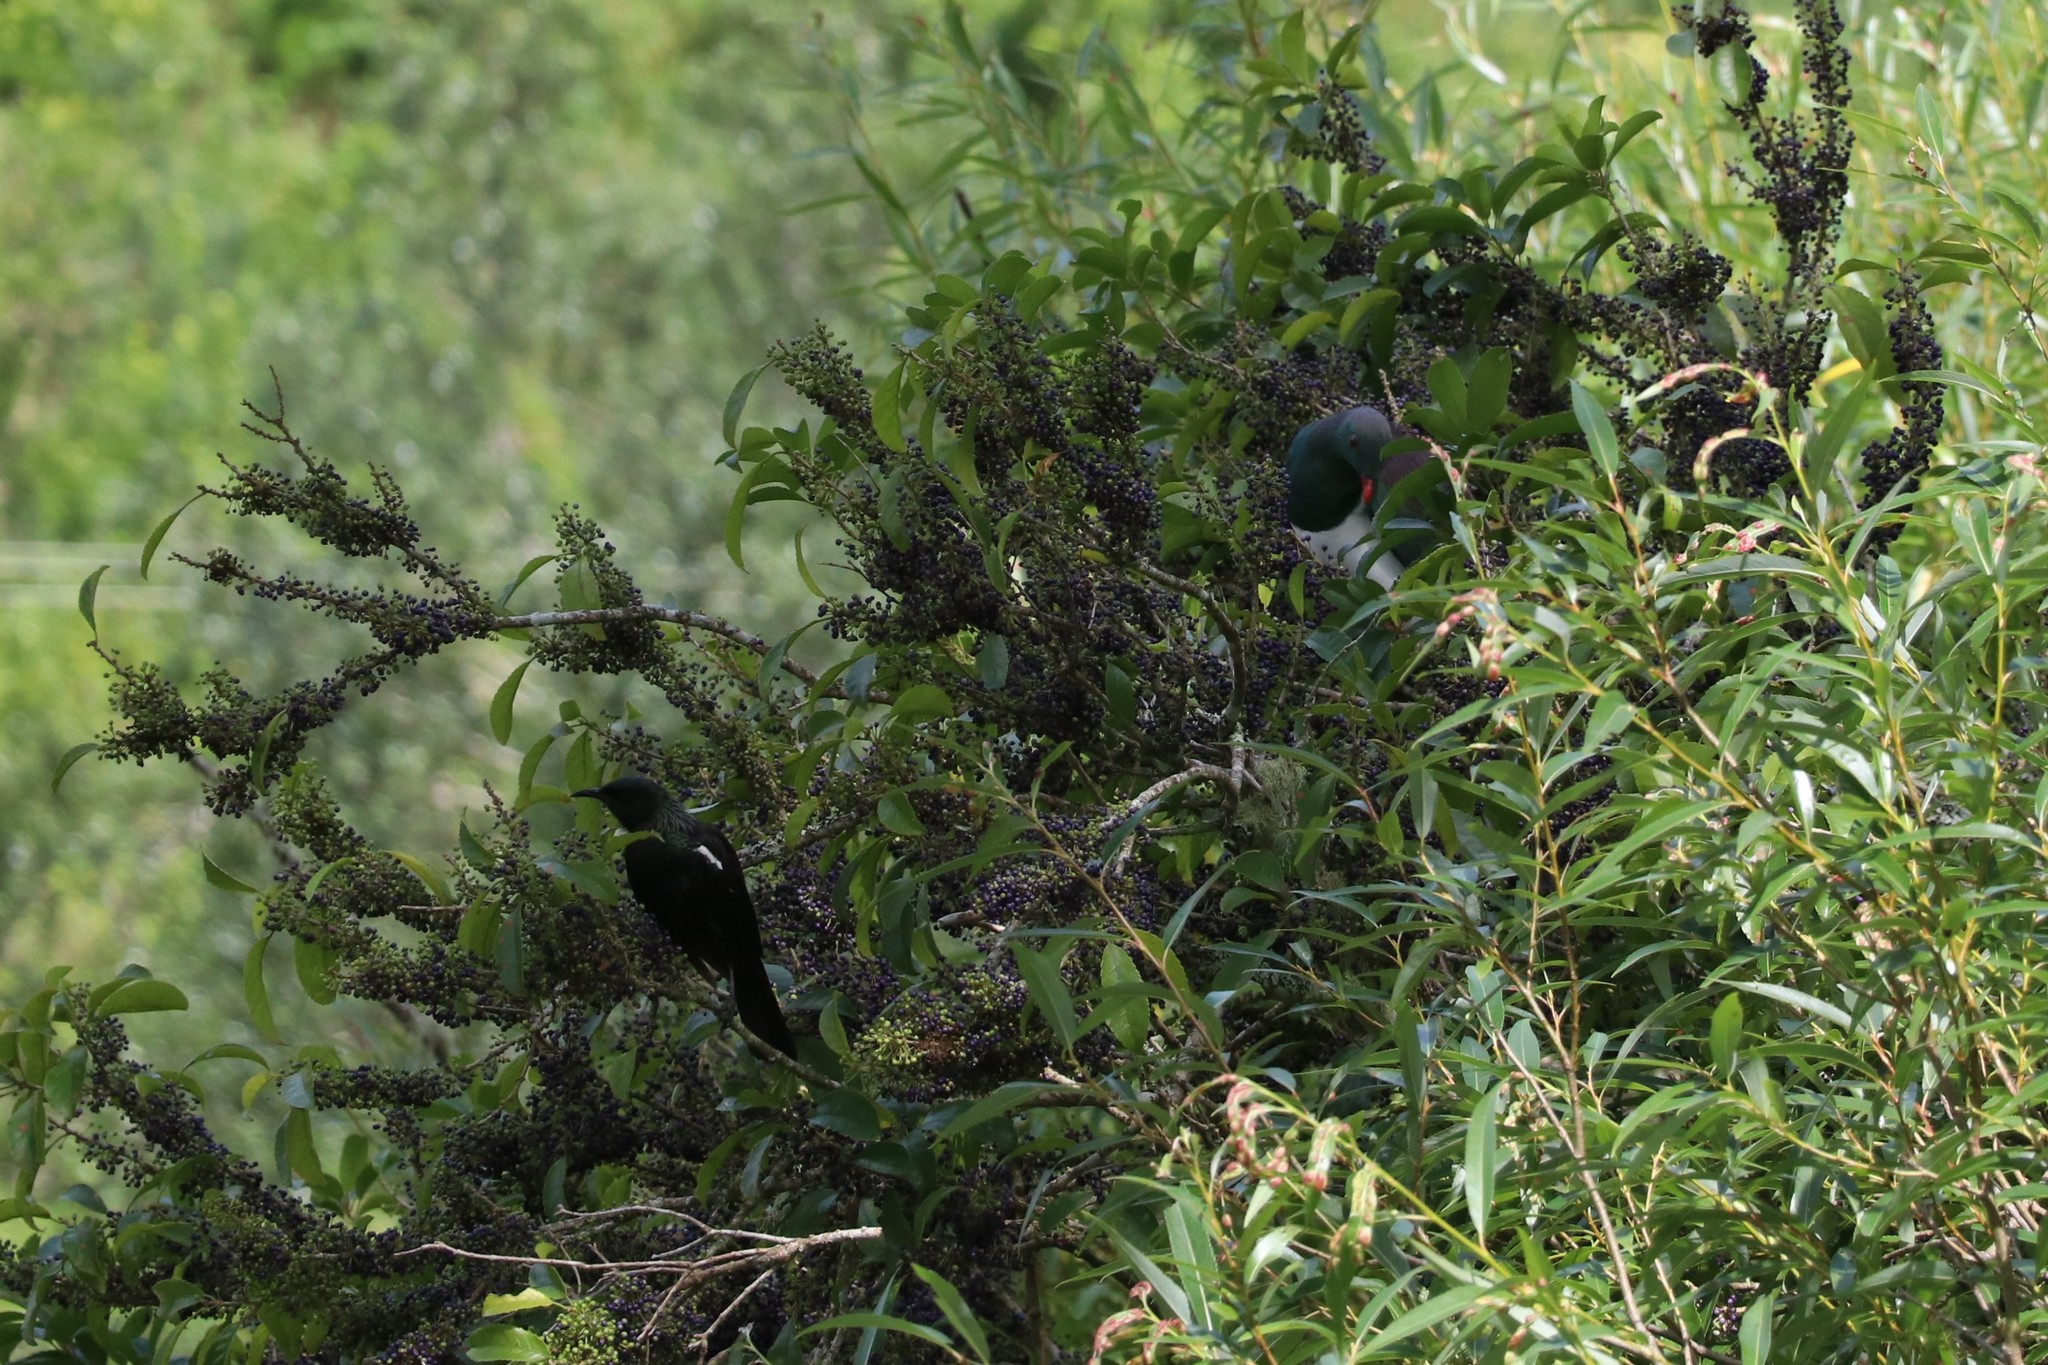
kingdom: Animalia
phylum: Chordata
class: Aves
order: Passeriformes
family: Meliphagidae
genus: Prosthemadera
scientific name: Prosthemadera novaeseelandiae
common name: Tui
